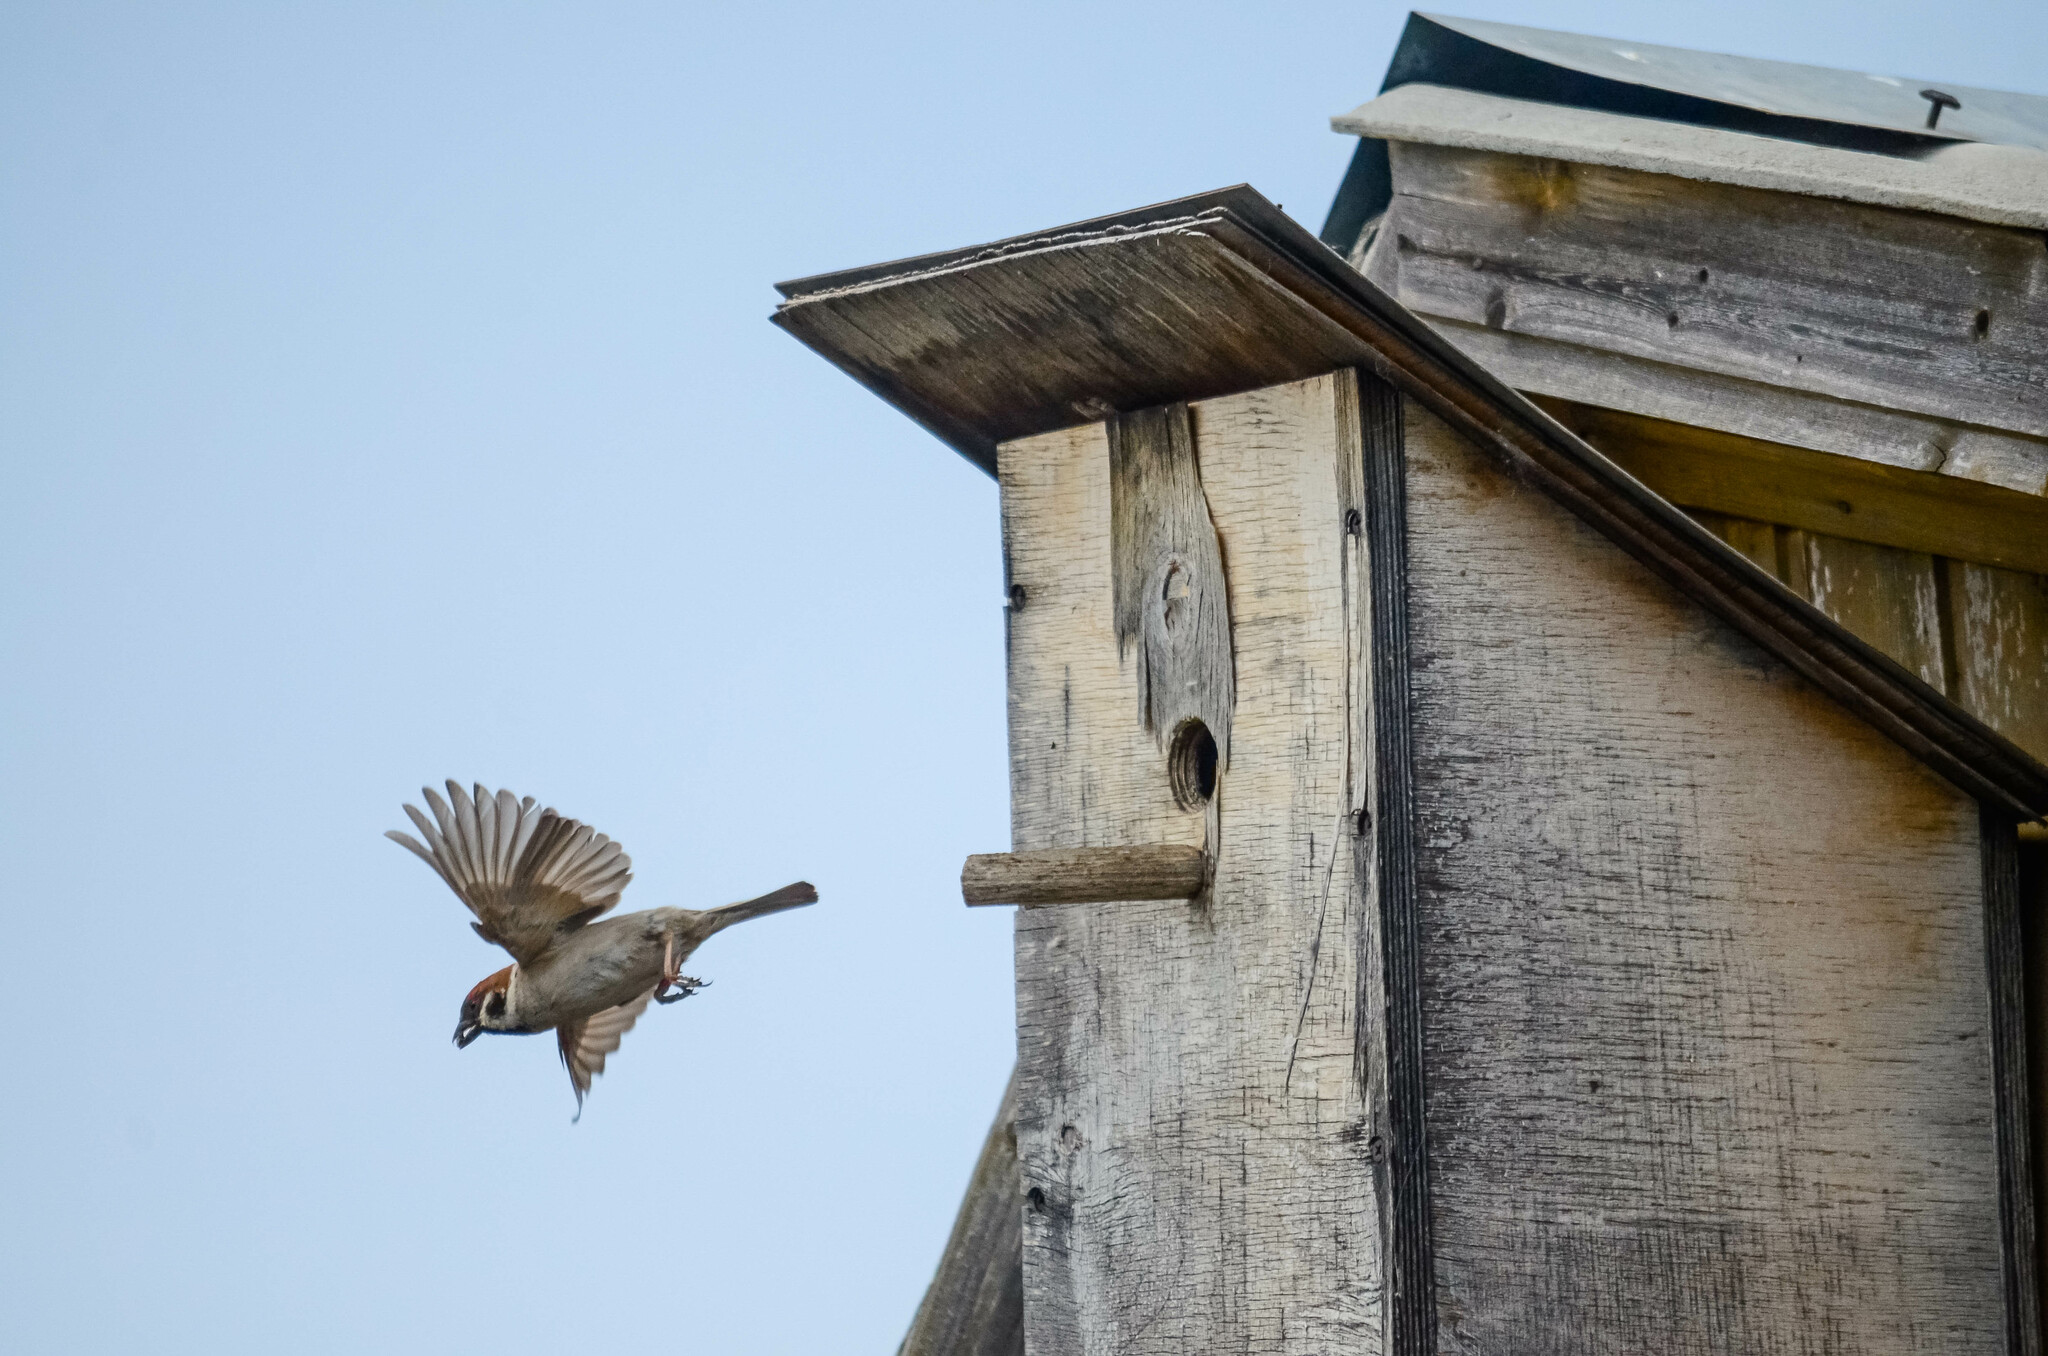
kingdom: Animalia
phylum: Chordata
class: Aves
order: Passeriformes
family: Passeridae
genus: Passer
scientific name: Passer montanus
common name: Eurasian tree sparrow
